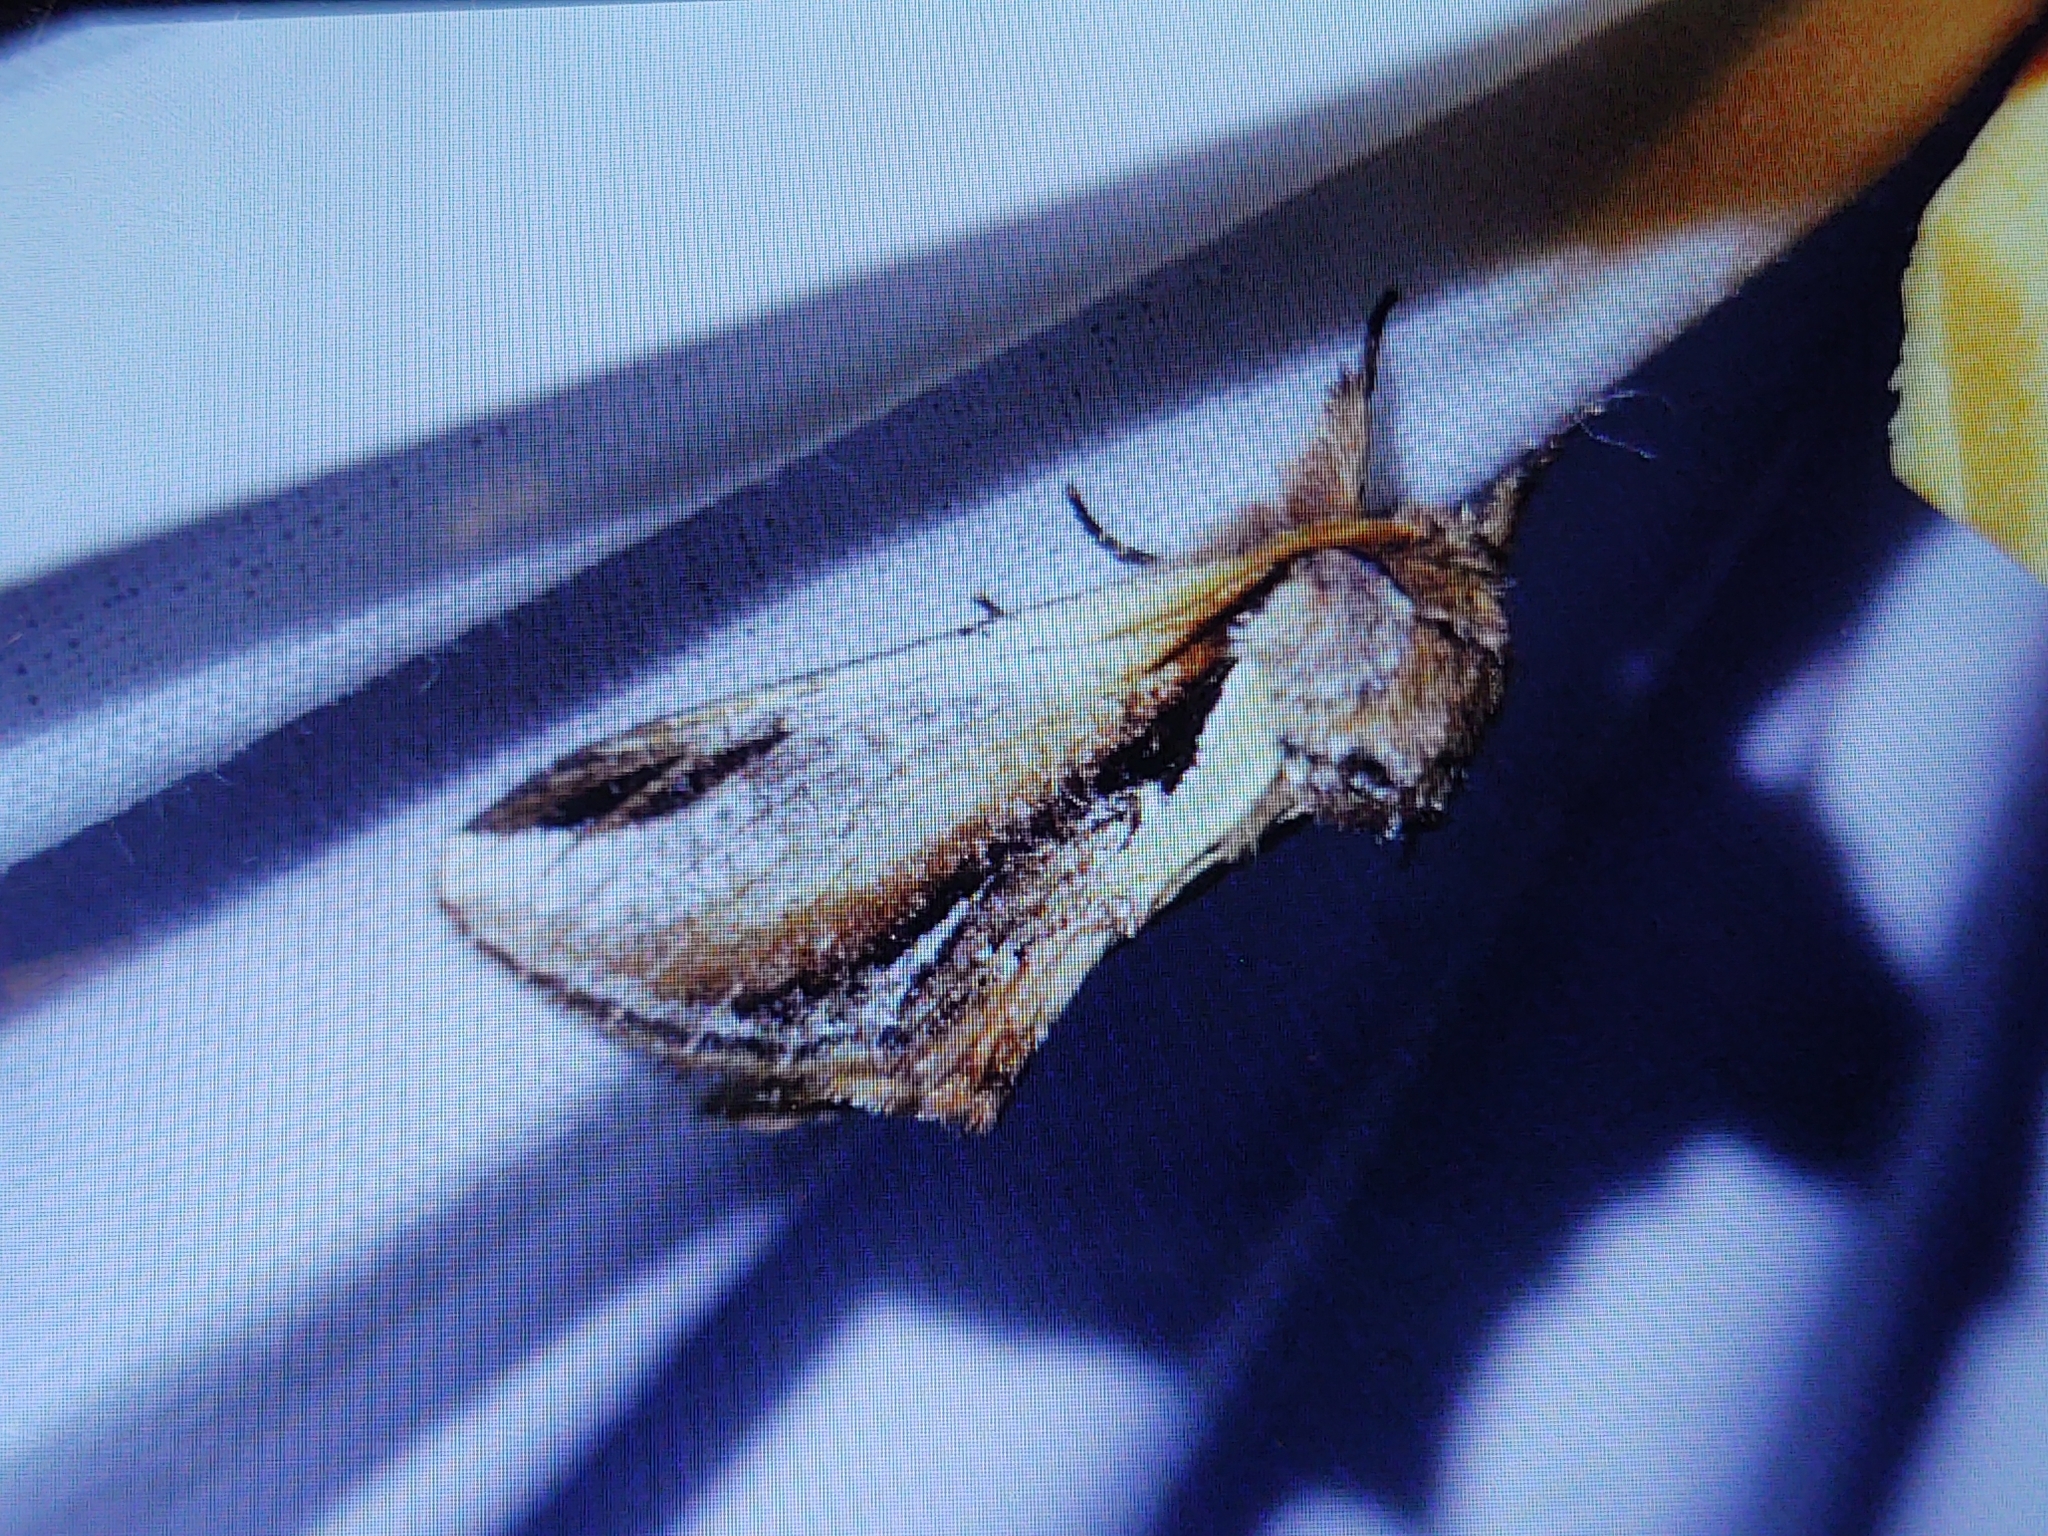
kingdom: Animalia
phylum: Arthropoda
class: Insecta
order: Lepidoptera
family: Notodontidae
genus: Pheosia
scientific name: Pheosia gnoma
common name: Lesser swallow prominent
